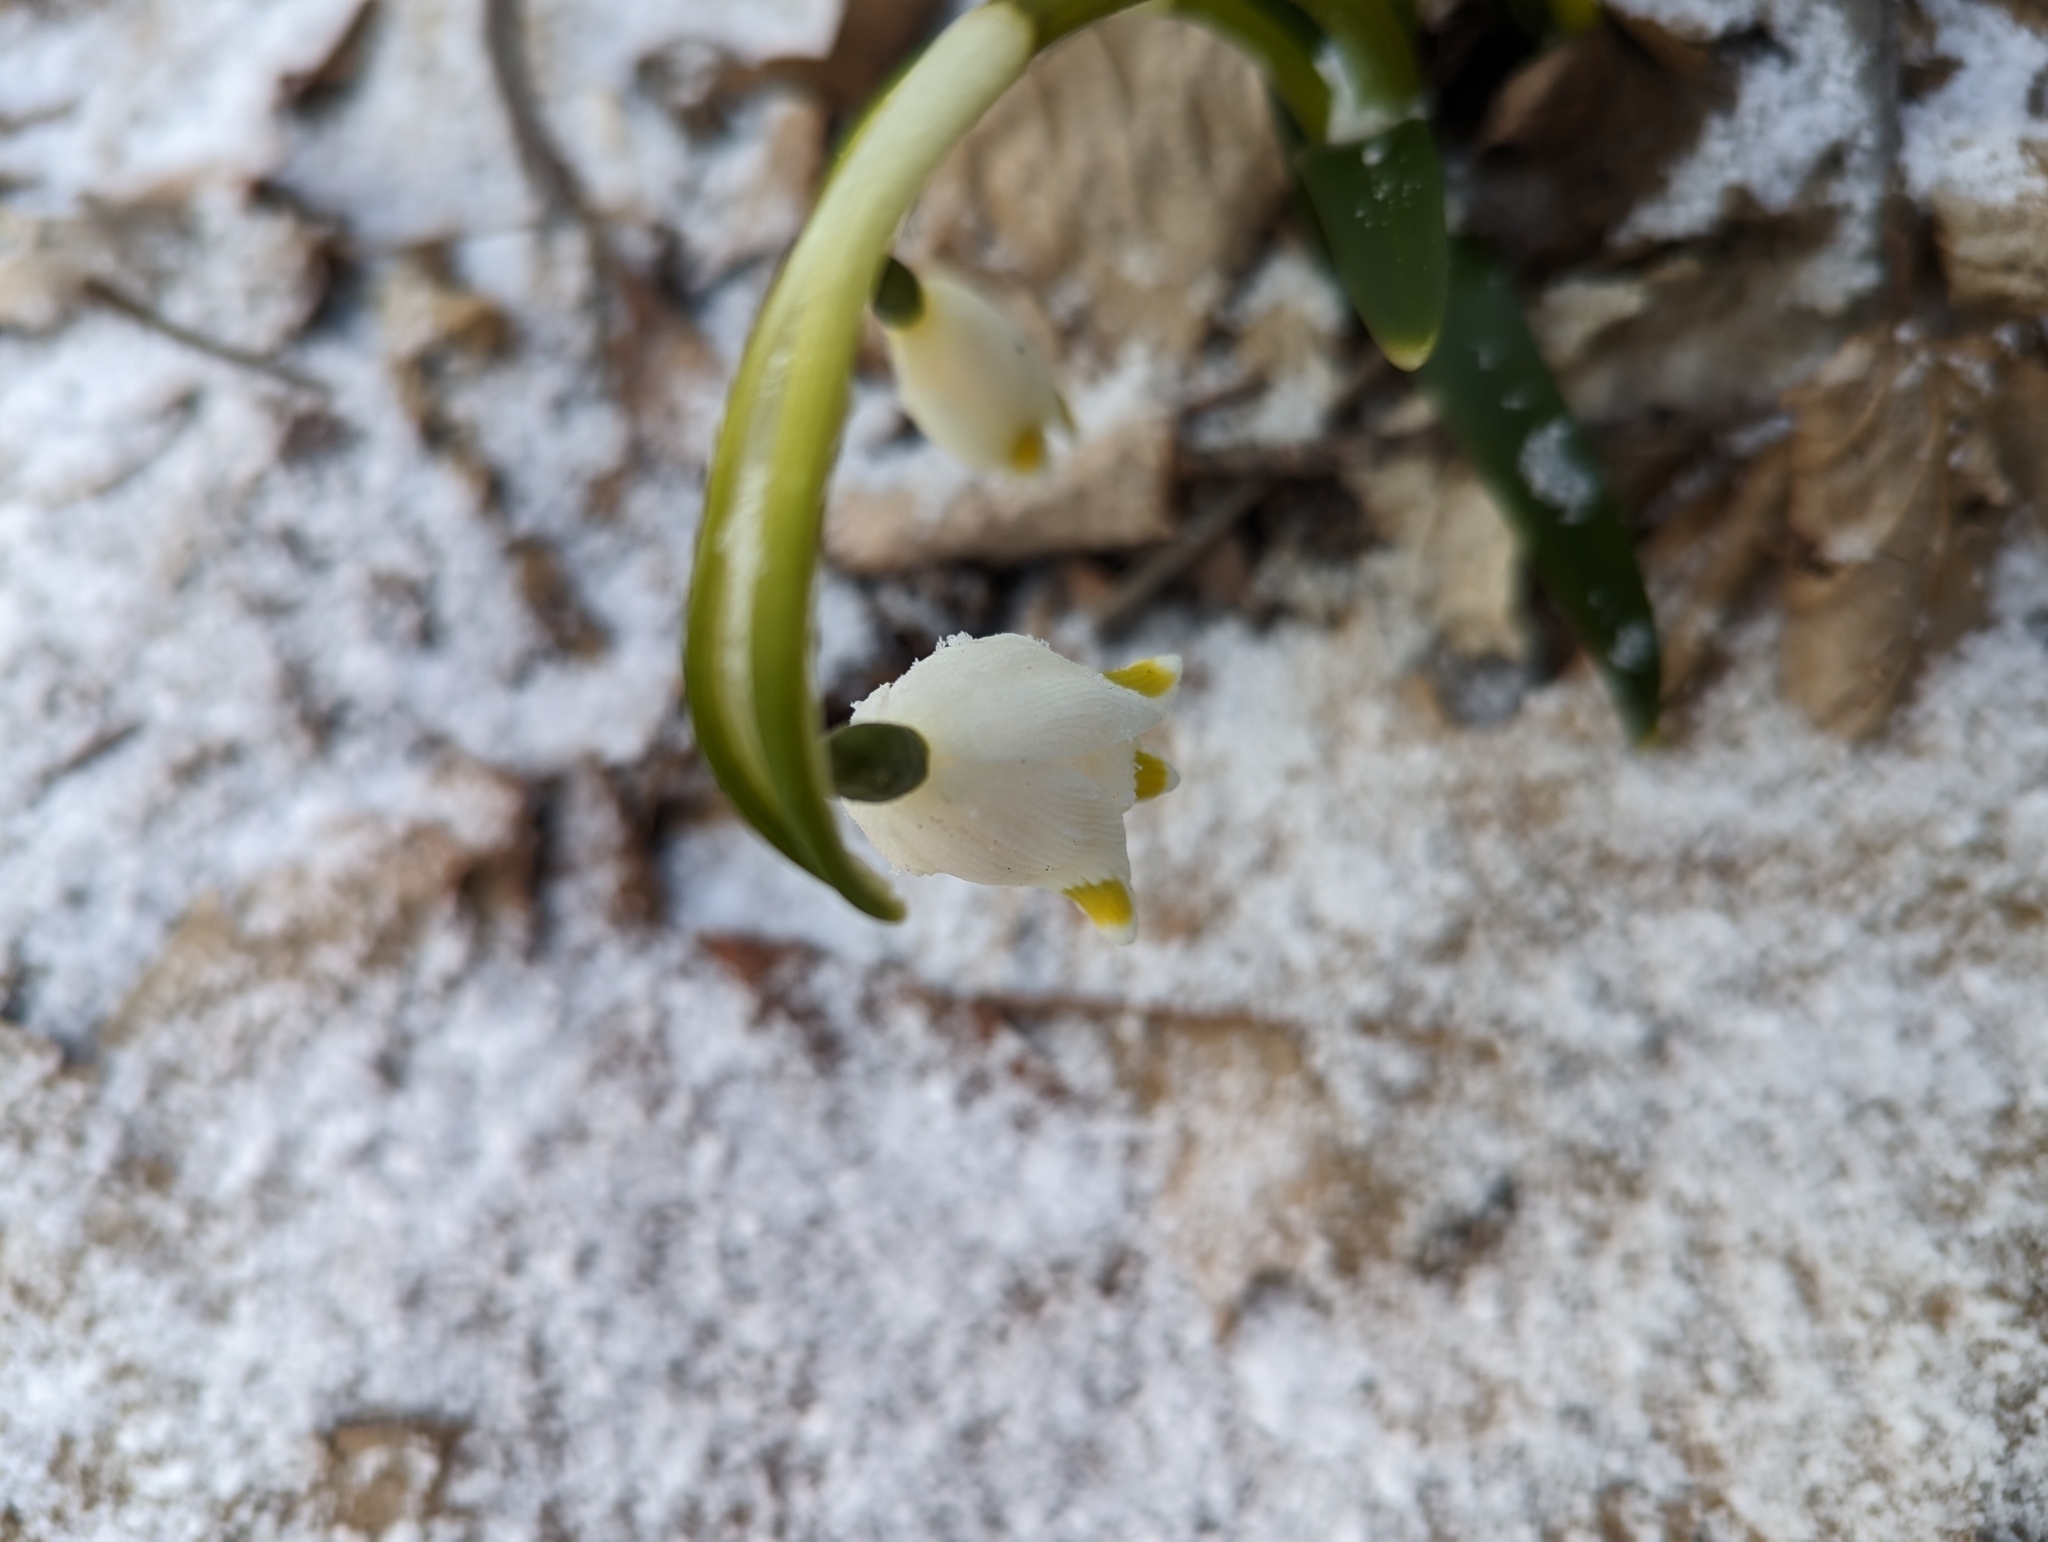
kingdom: Plantae
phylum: Tracheophyta
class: Liliopsida
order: Asparagales
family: Amaryllidaceae
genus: Leucojum
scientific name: Leucojum vernum
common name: Spring snowflake
